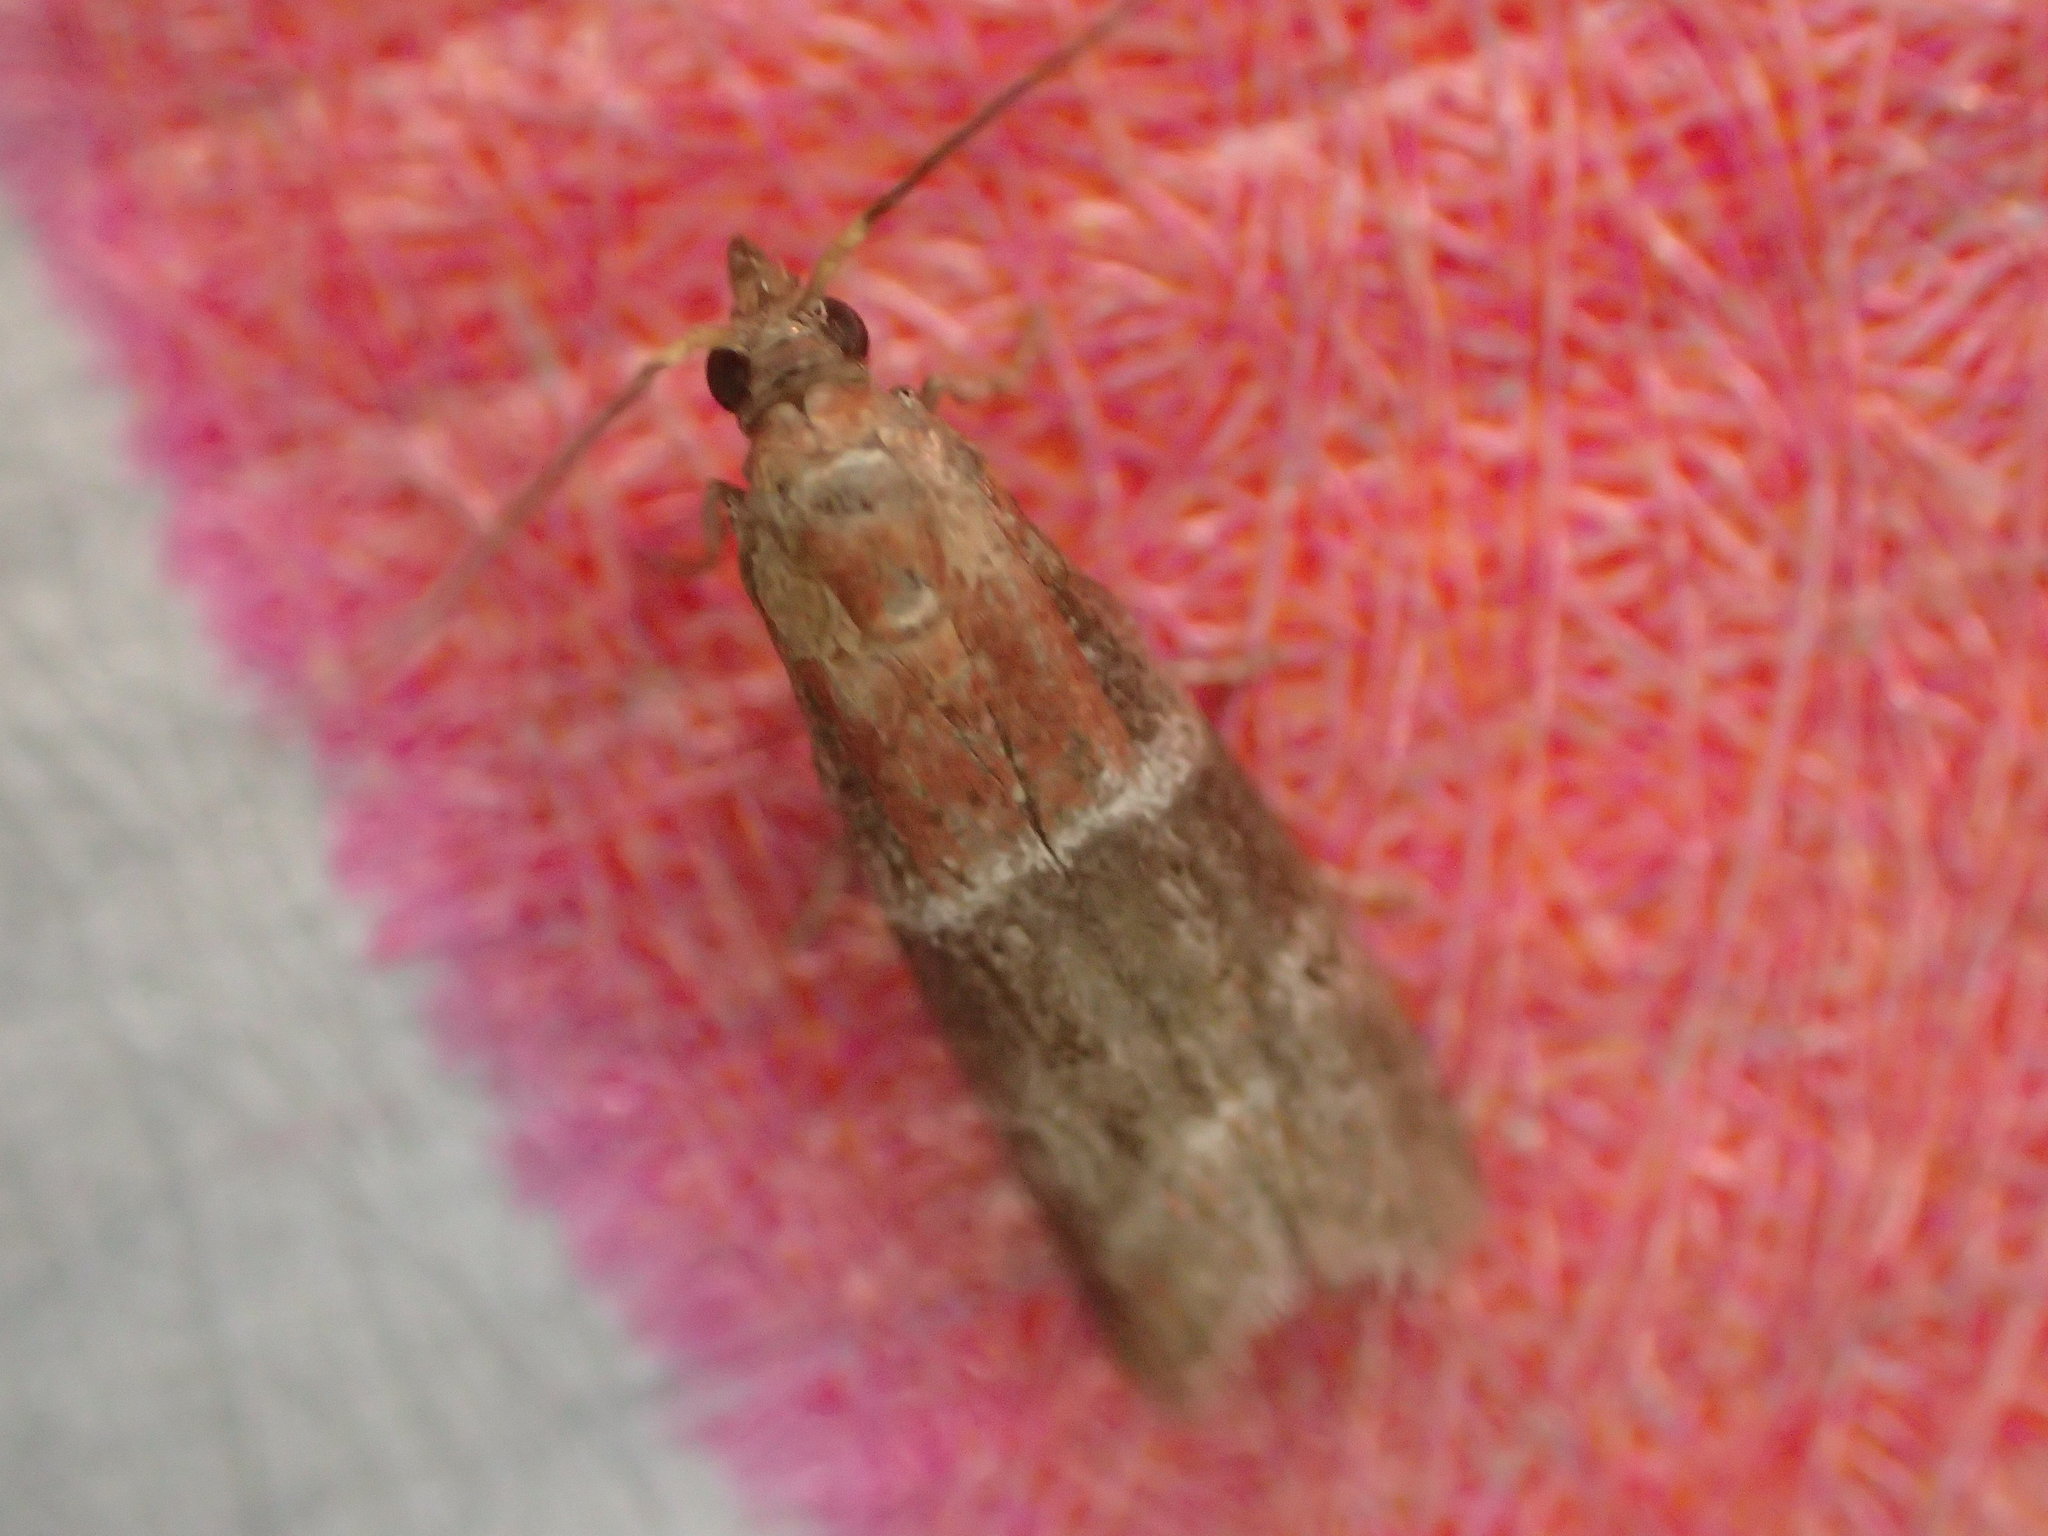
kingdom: Animalia
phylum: Arthropoda
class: Insecta
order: Lepidoptera
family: Pyralidae
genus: Moodna
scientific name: Moodna ostrinella
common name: Darker moodna moth
